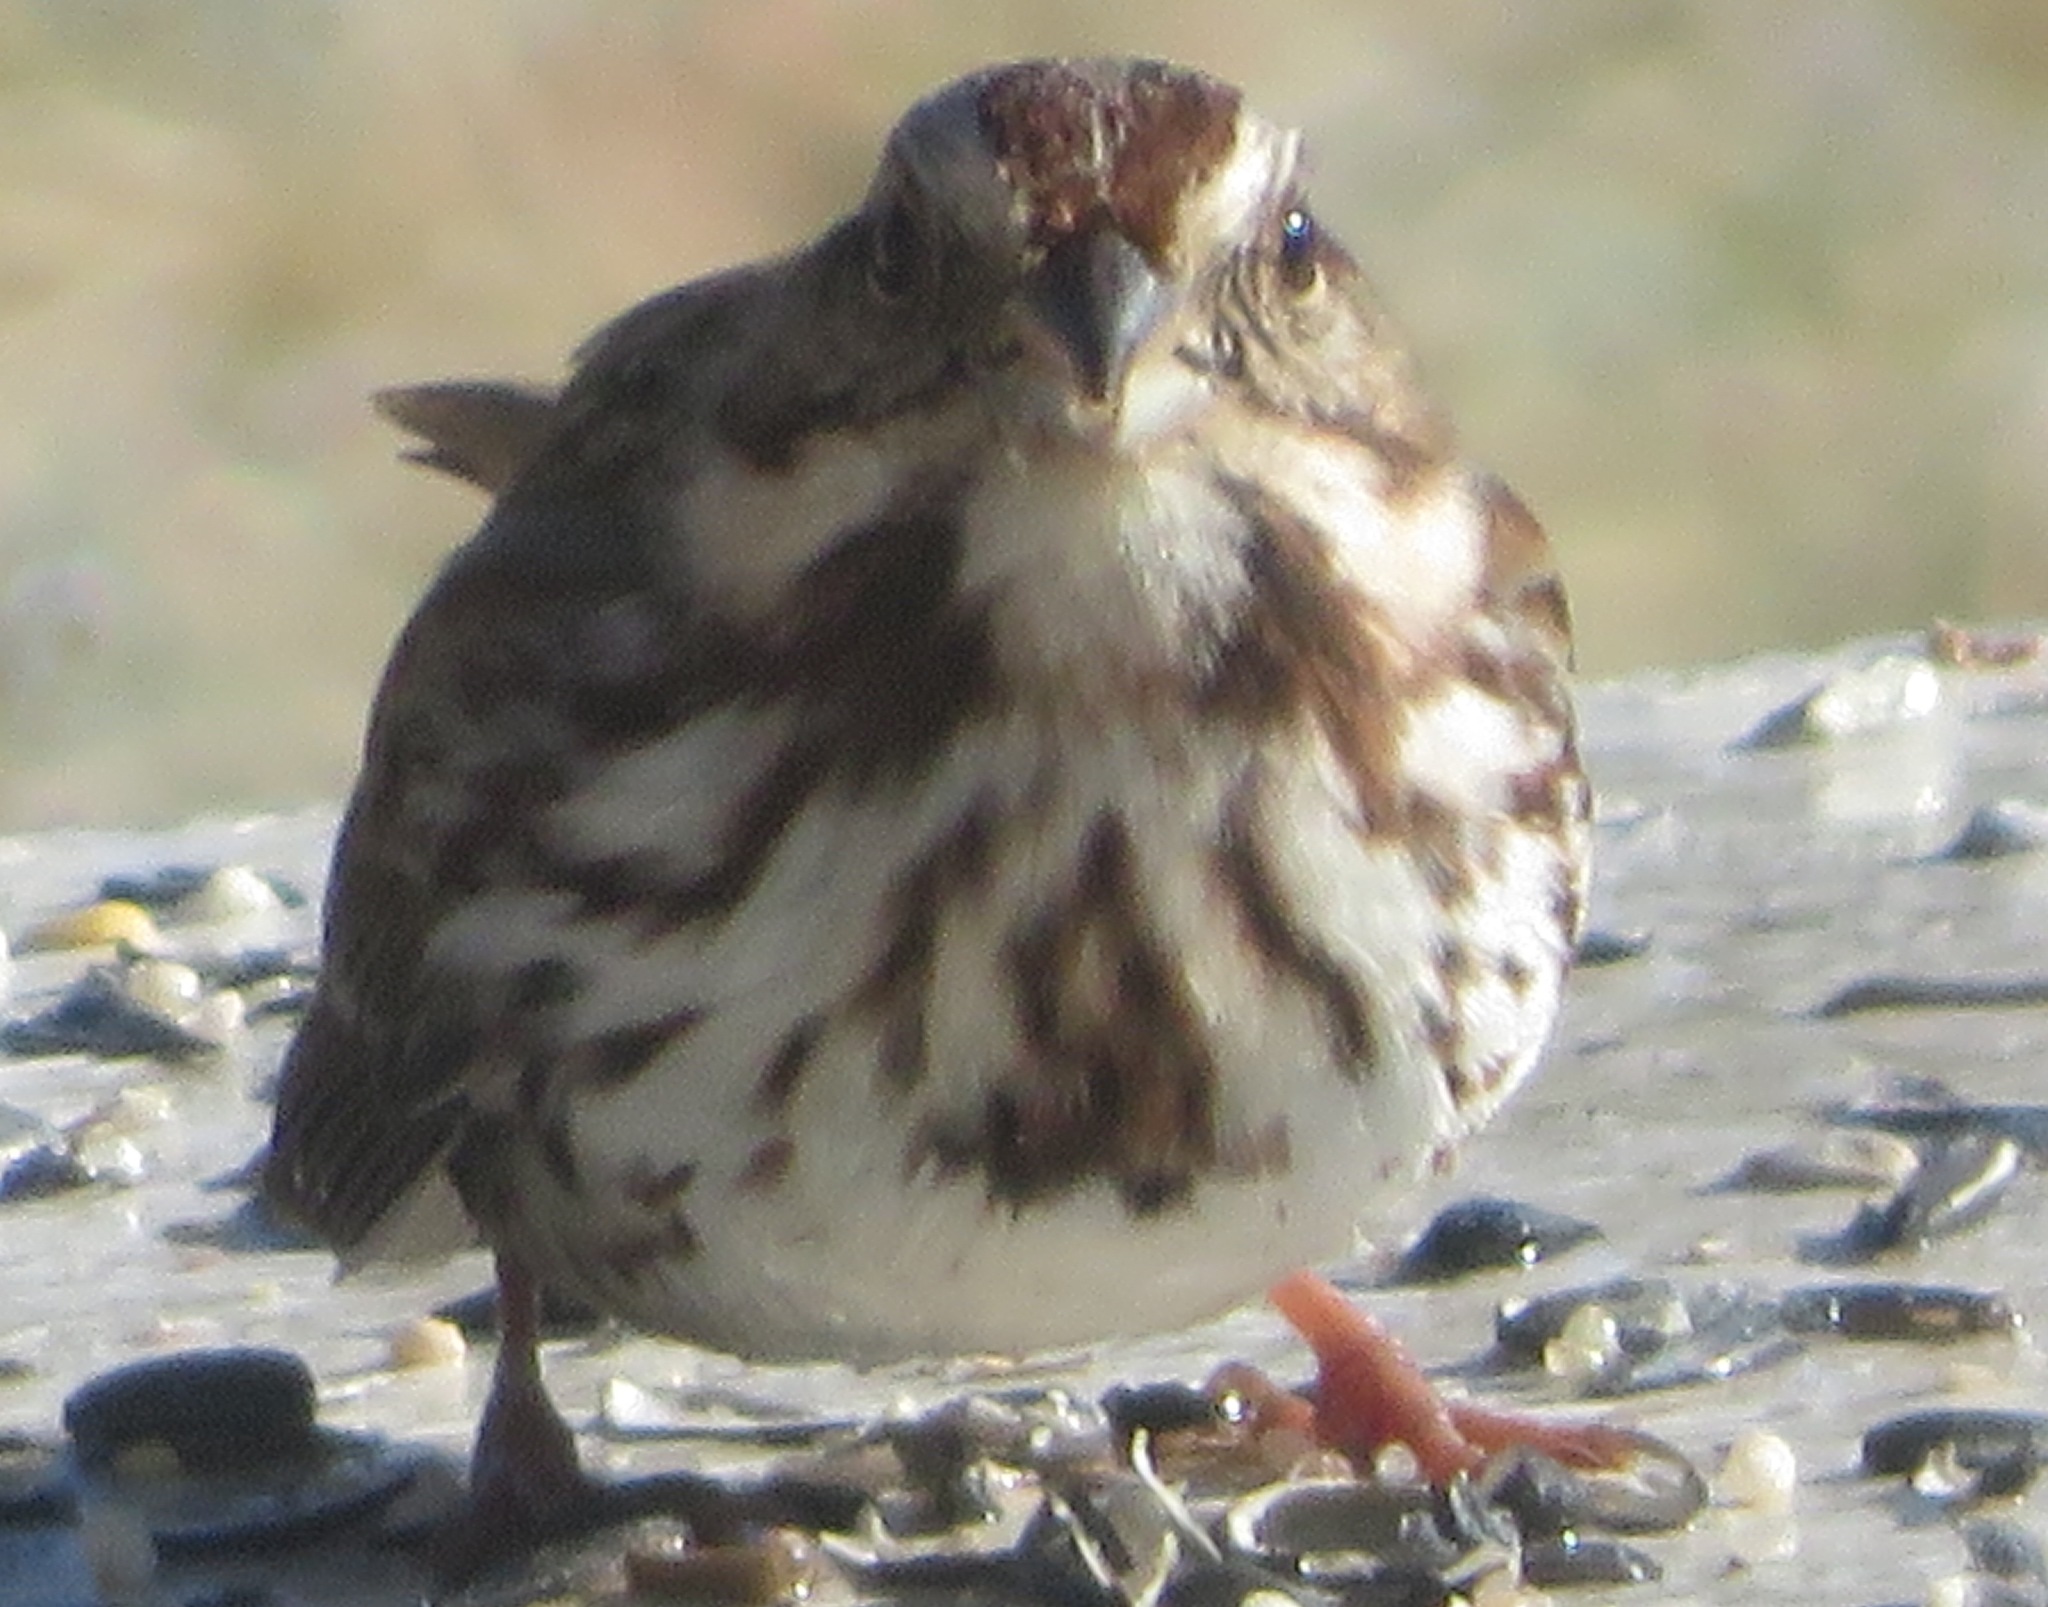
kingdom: Animalia
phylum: Chordata
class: Aves
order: Passeriformes
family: Passerellidae
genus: Melospiza
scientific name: Melospiza melodia
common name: Song sparrow
